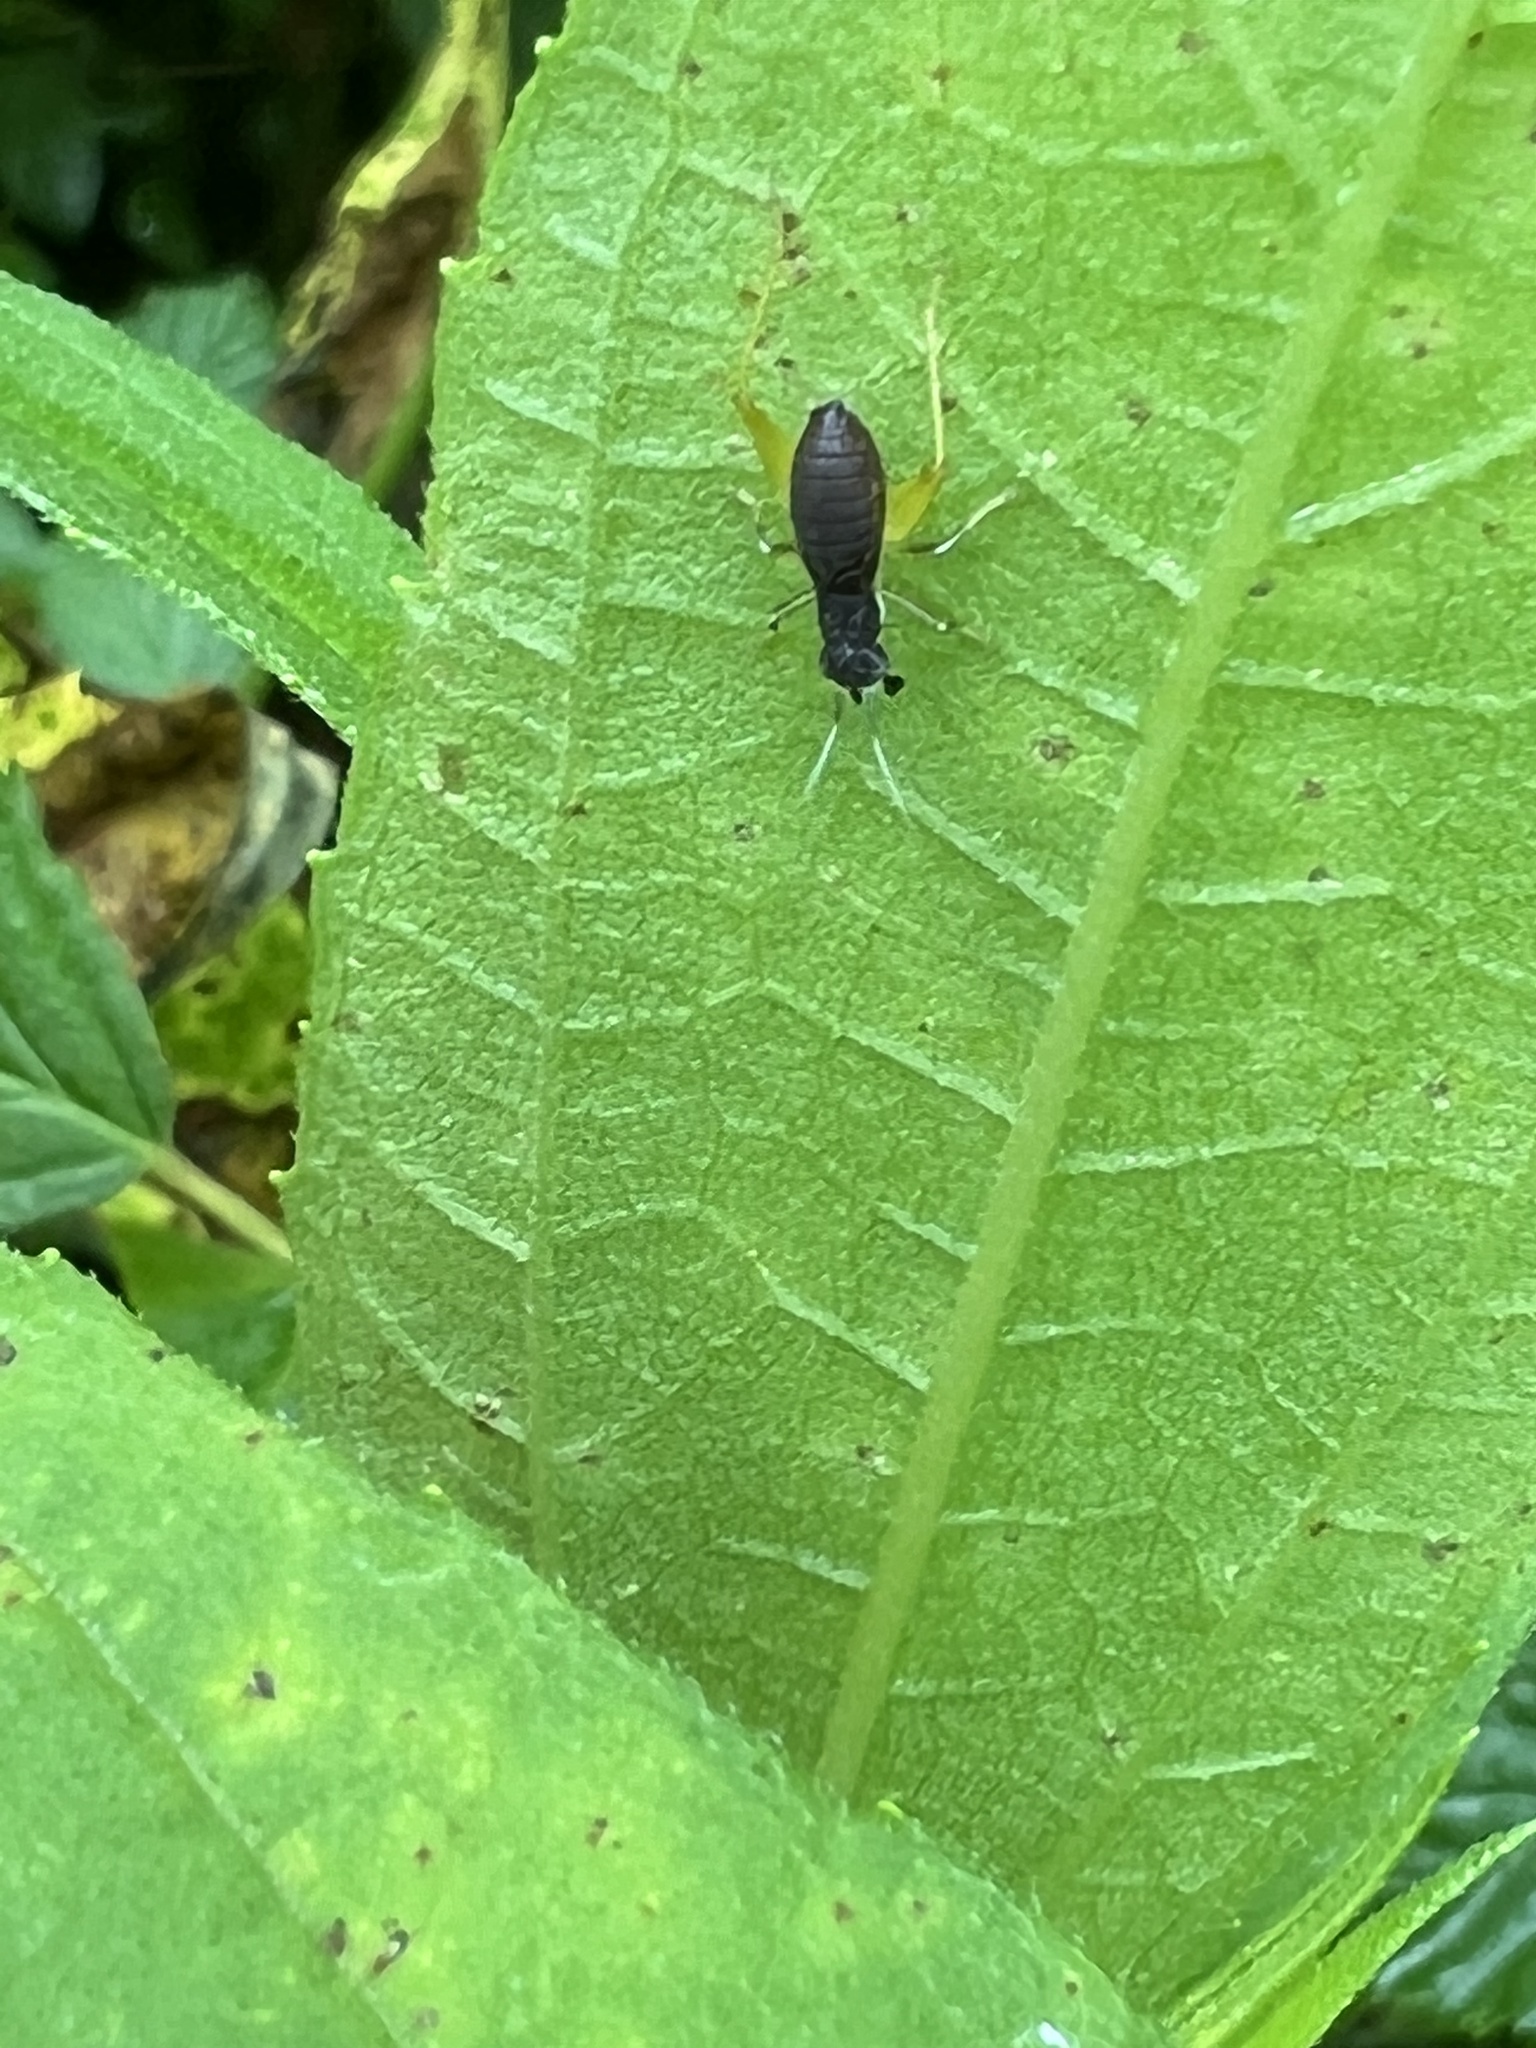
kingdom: Animalia
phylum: Arthropoda
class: Insecta
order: Orthoptera
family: Trigonidiidae
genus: Phyllopalpus
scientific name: Phyllopalpus pulchellus
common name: Handsome trig
